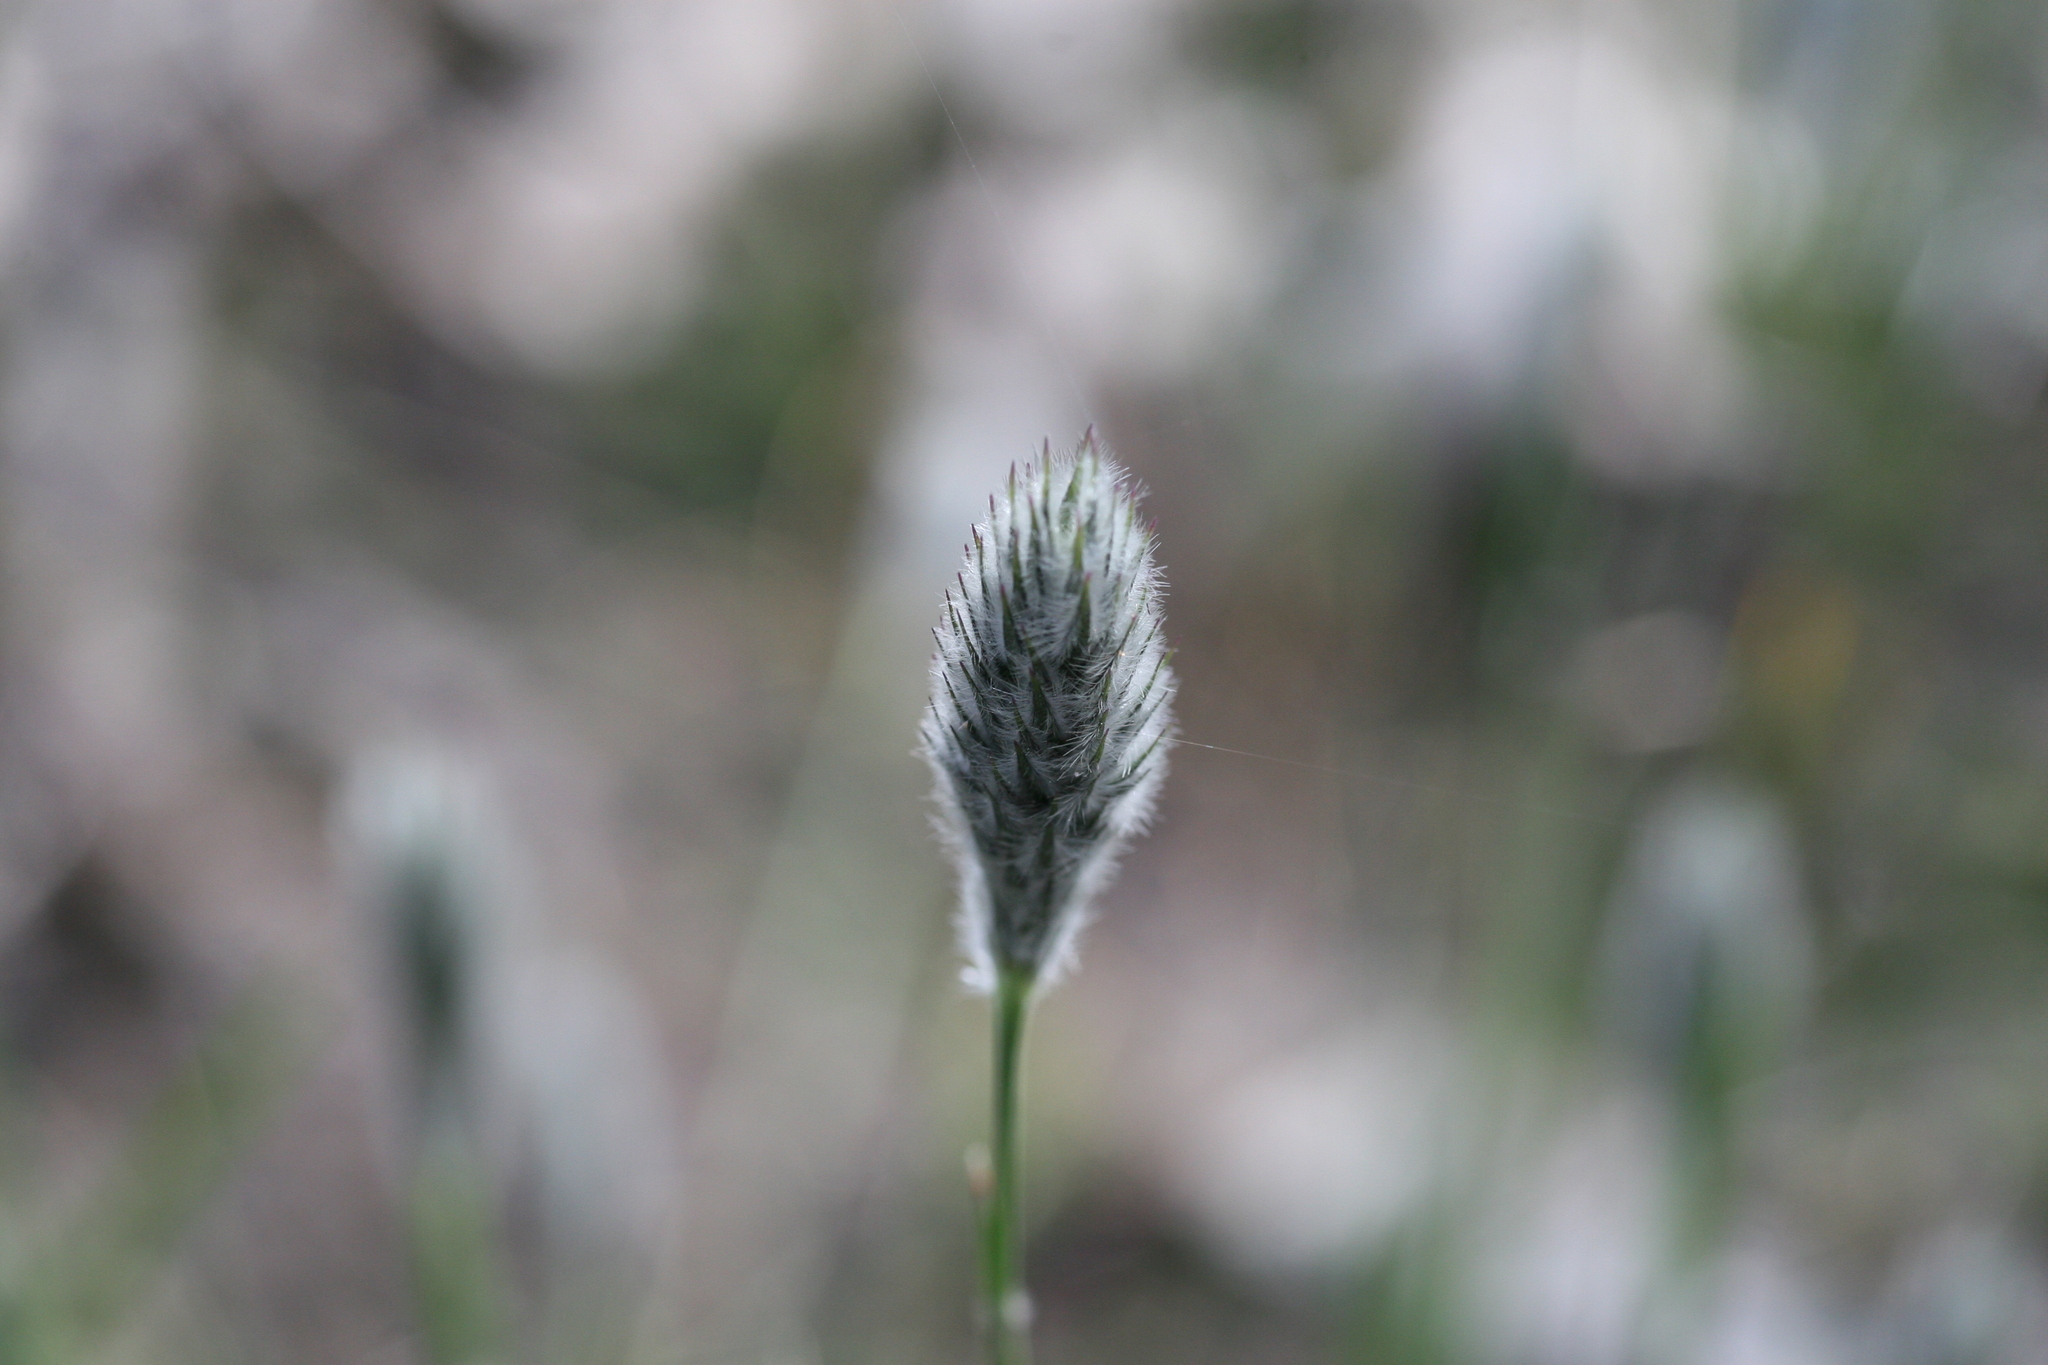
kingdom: Plantae
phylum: Tracheophyta
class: Liliopsida
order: Poales
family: Poaceae
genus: Neurachne
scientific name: Neurachne alopecuroidea
